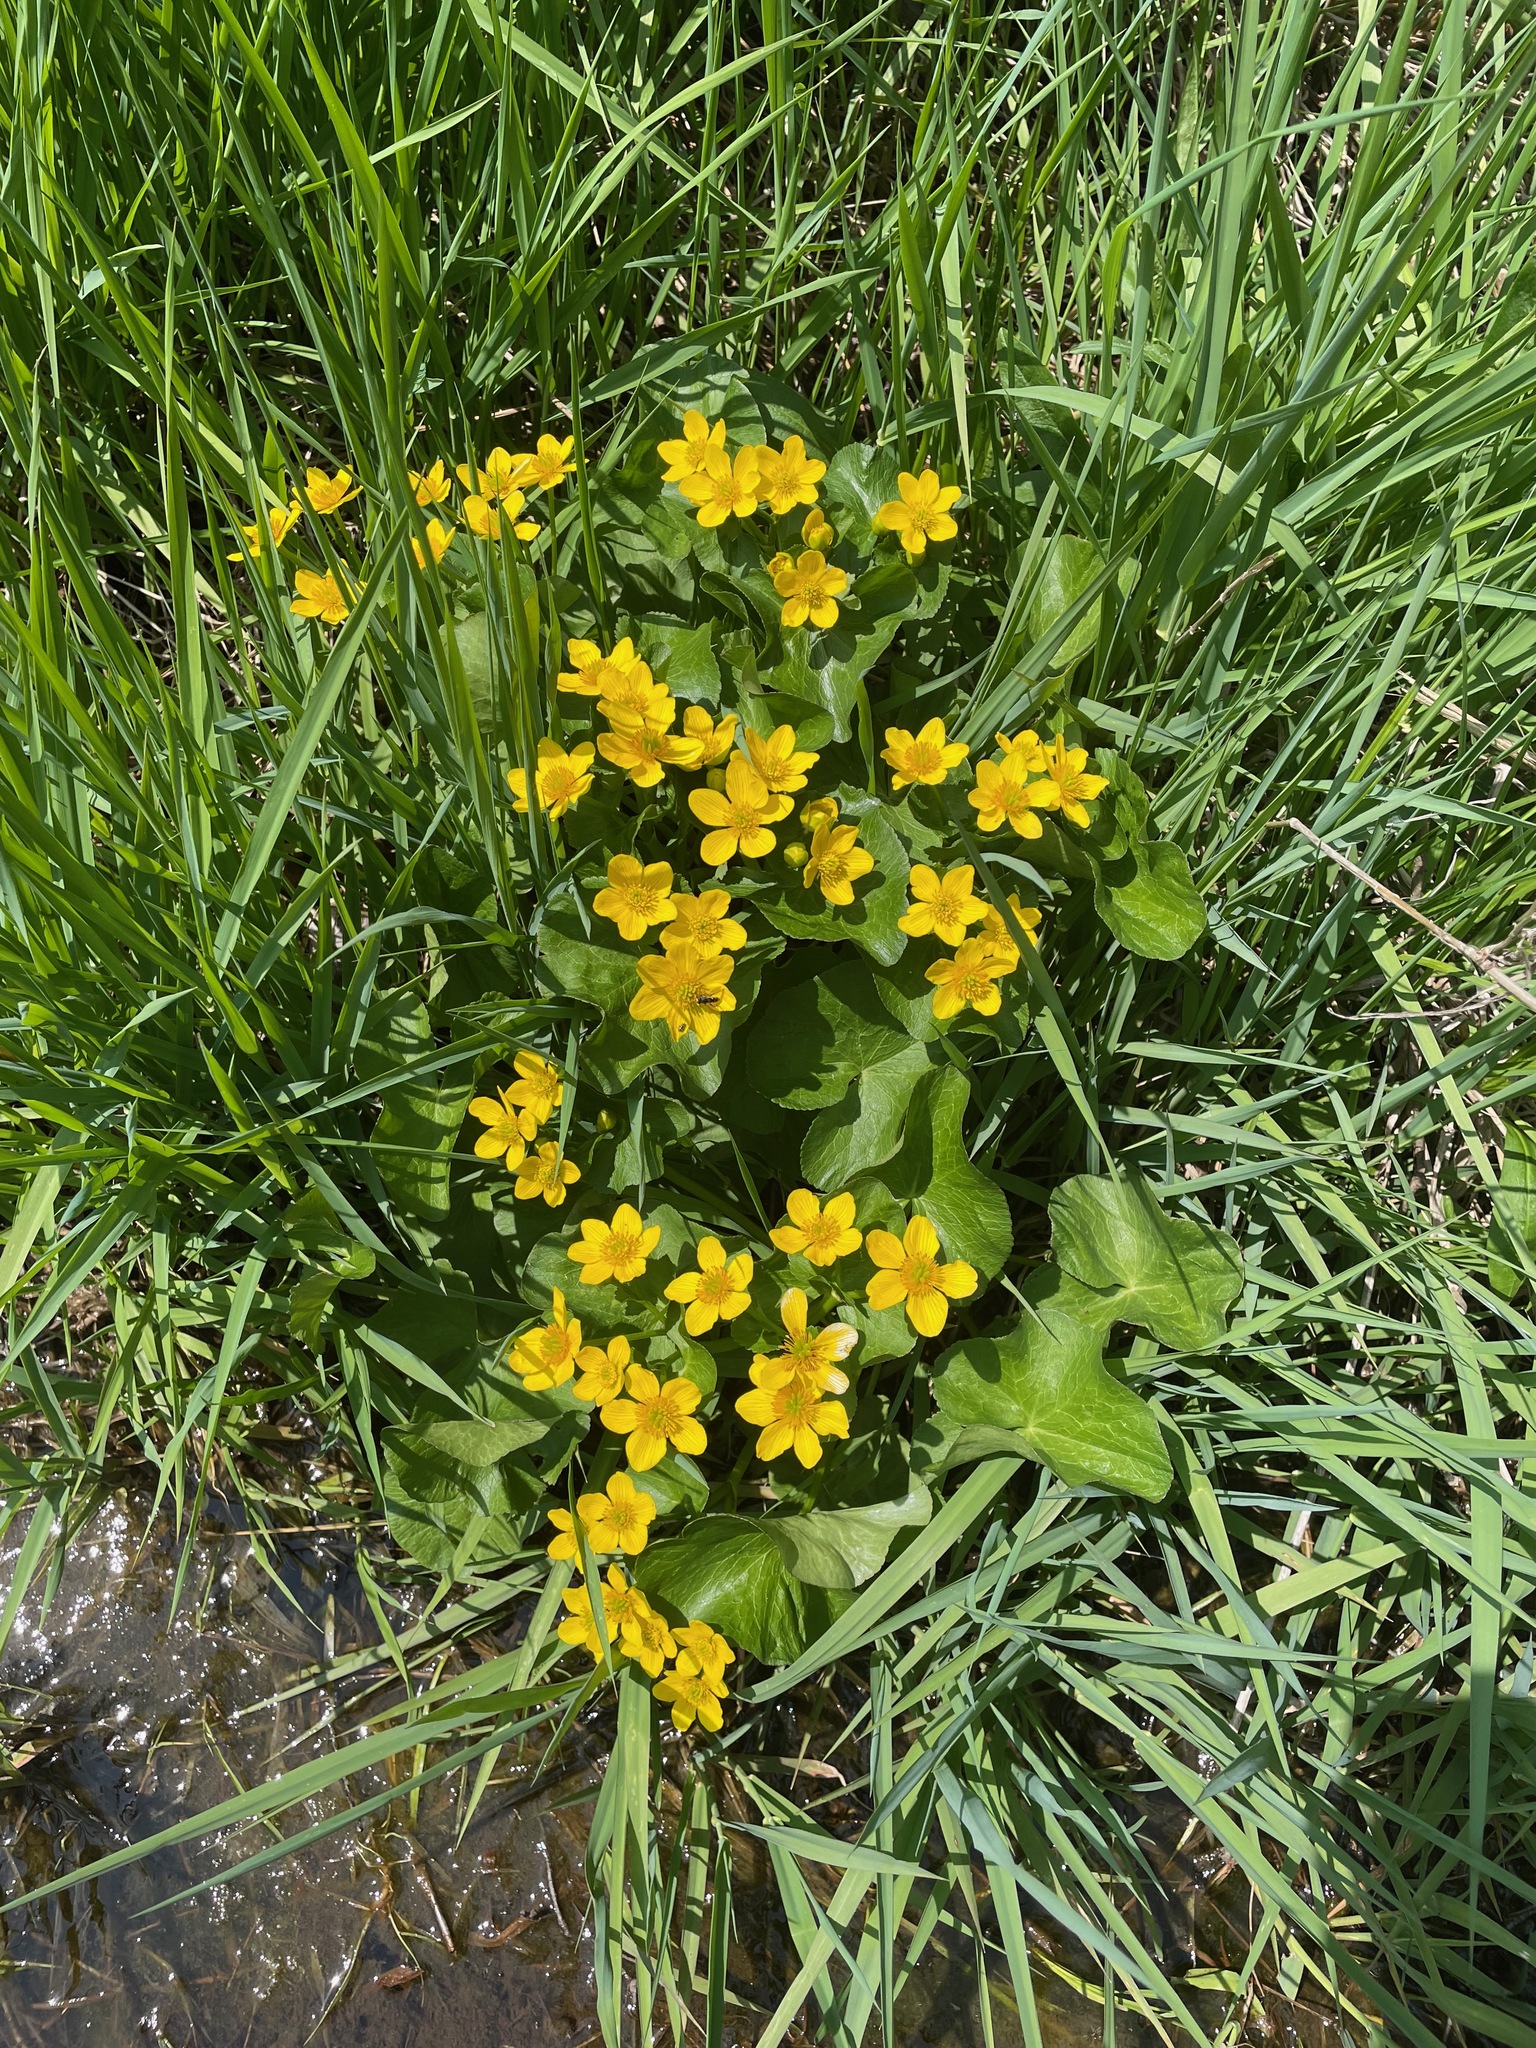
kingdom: Plantae
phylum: Tracheophyta
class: Magnoliopsida
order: Ranunculales
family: Ranunculaceae
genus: Caltha
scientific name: Caltha palustris
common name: Marsh marigold
